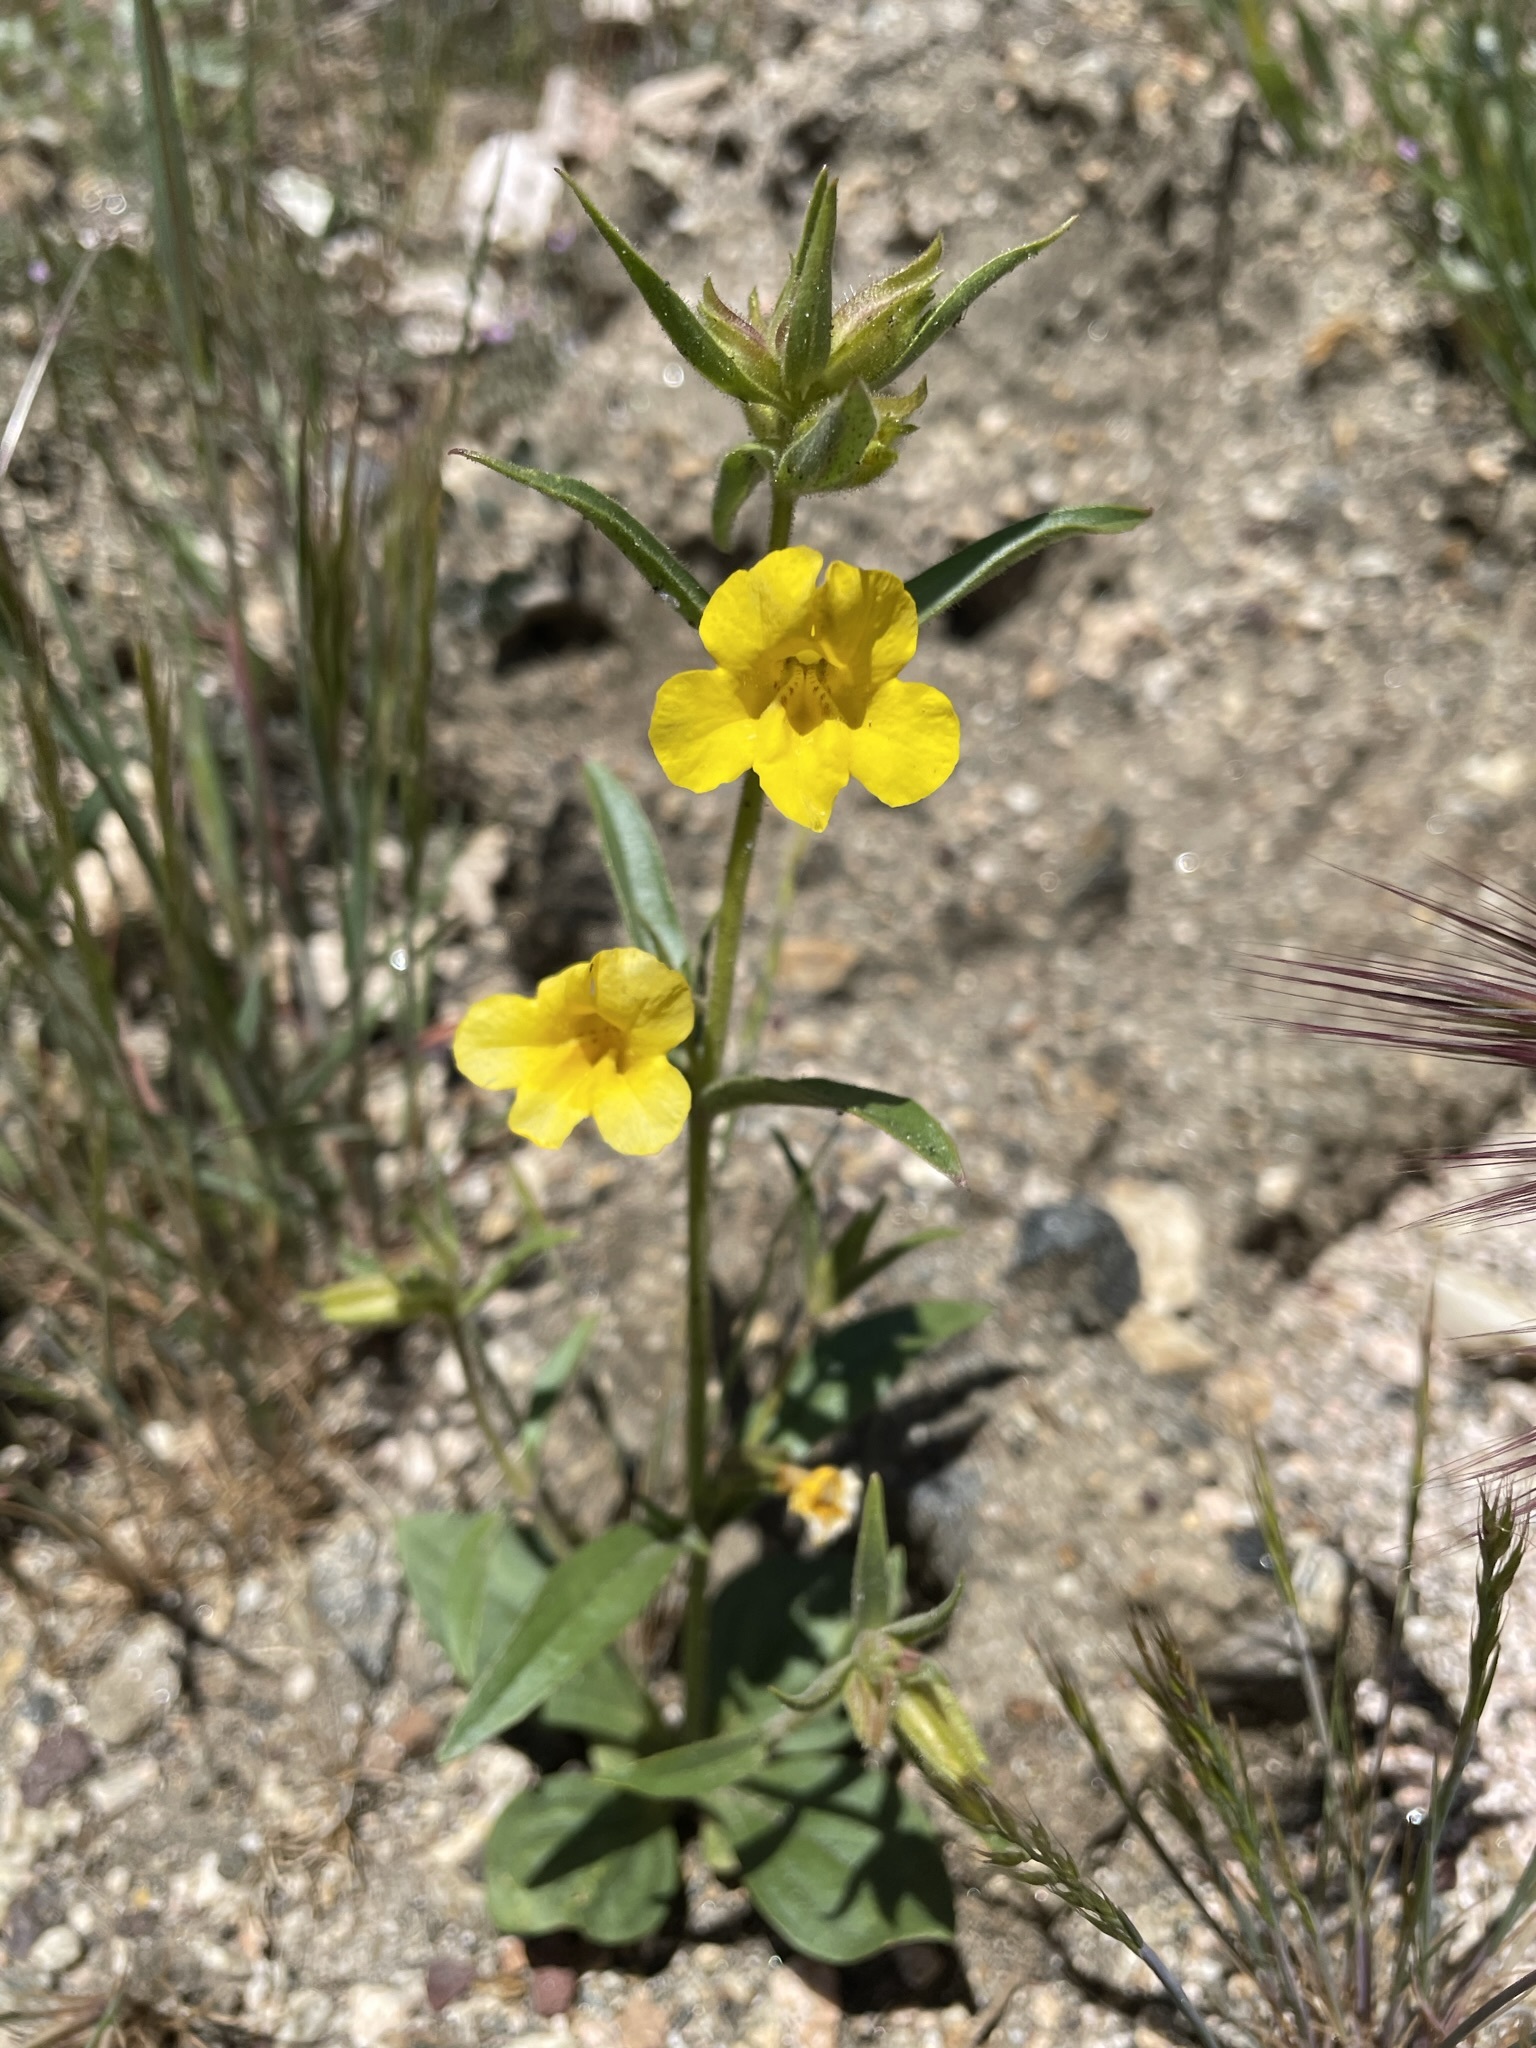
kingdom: Plantae
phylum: Tracheophyta
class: Magnoliopsida
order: Lamiales
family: Phrymaceae
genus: Diplacus
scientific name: Diplacus brevipes
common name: Wide-throat yellow monkey-flower
